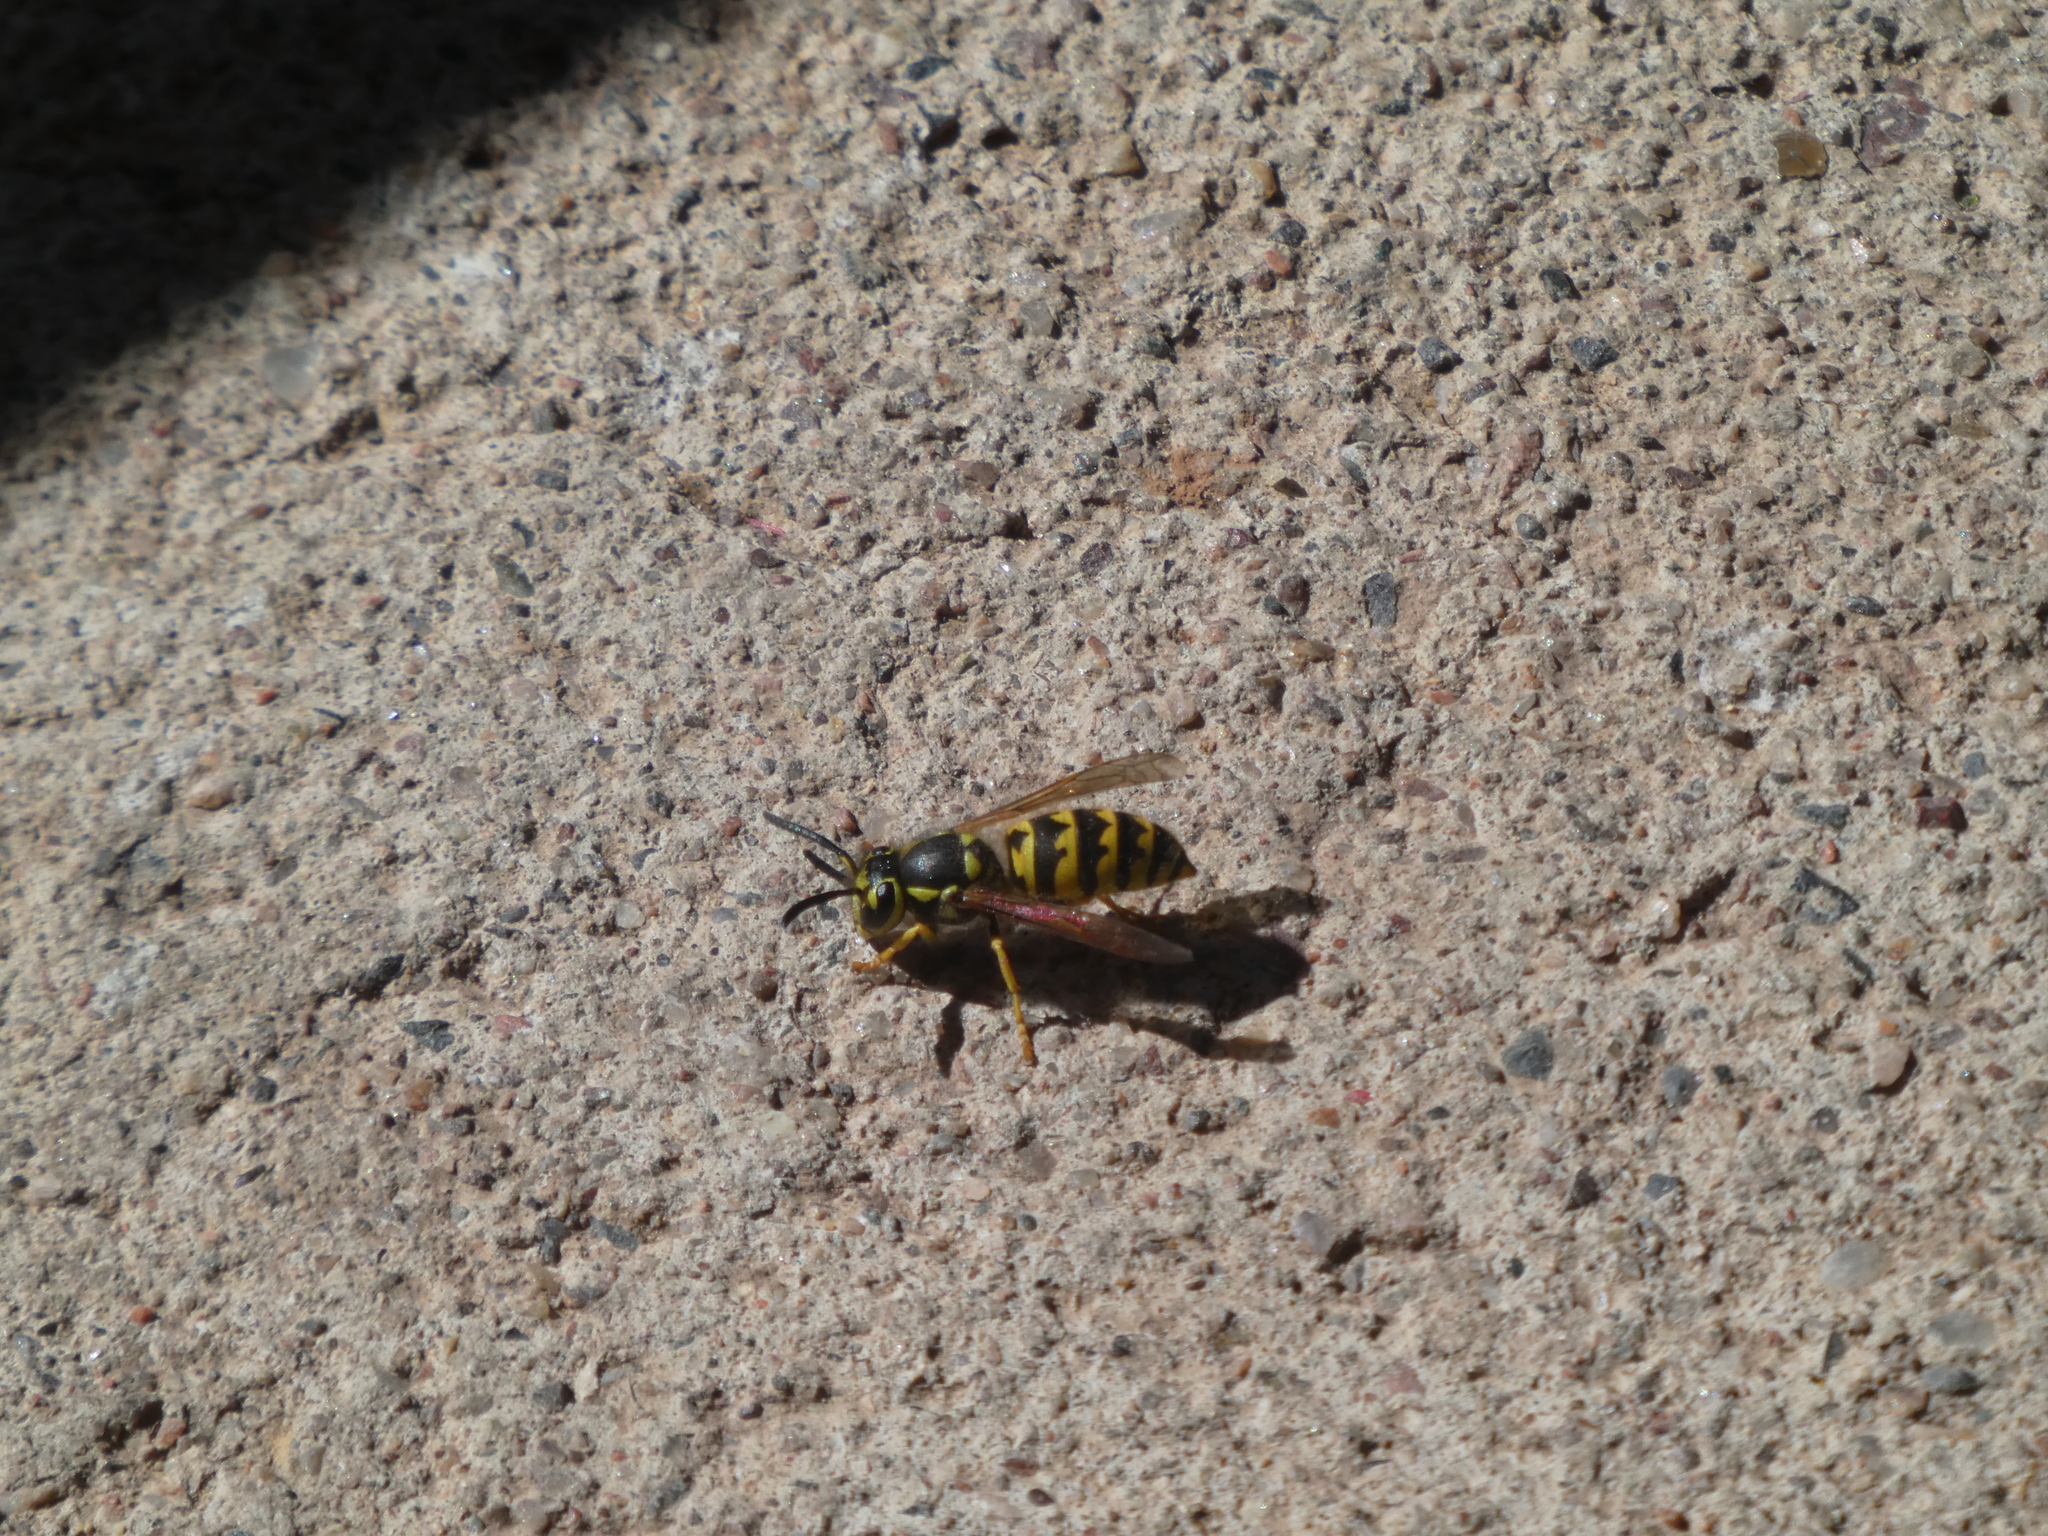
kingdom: Animalia
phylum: Arthropoda
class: Insecta
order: Hymenoptera
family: Vespidae
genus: Vespula
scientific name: Vespula pensylvanica
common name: Western yellowjacket
